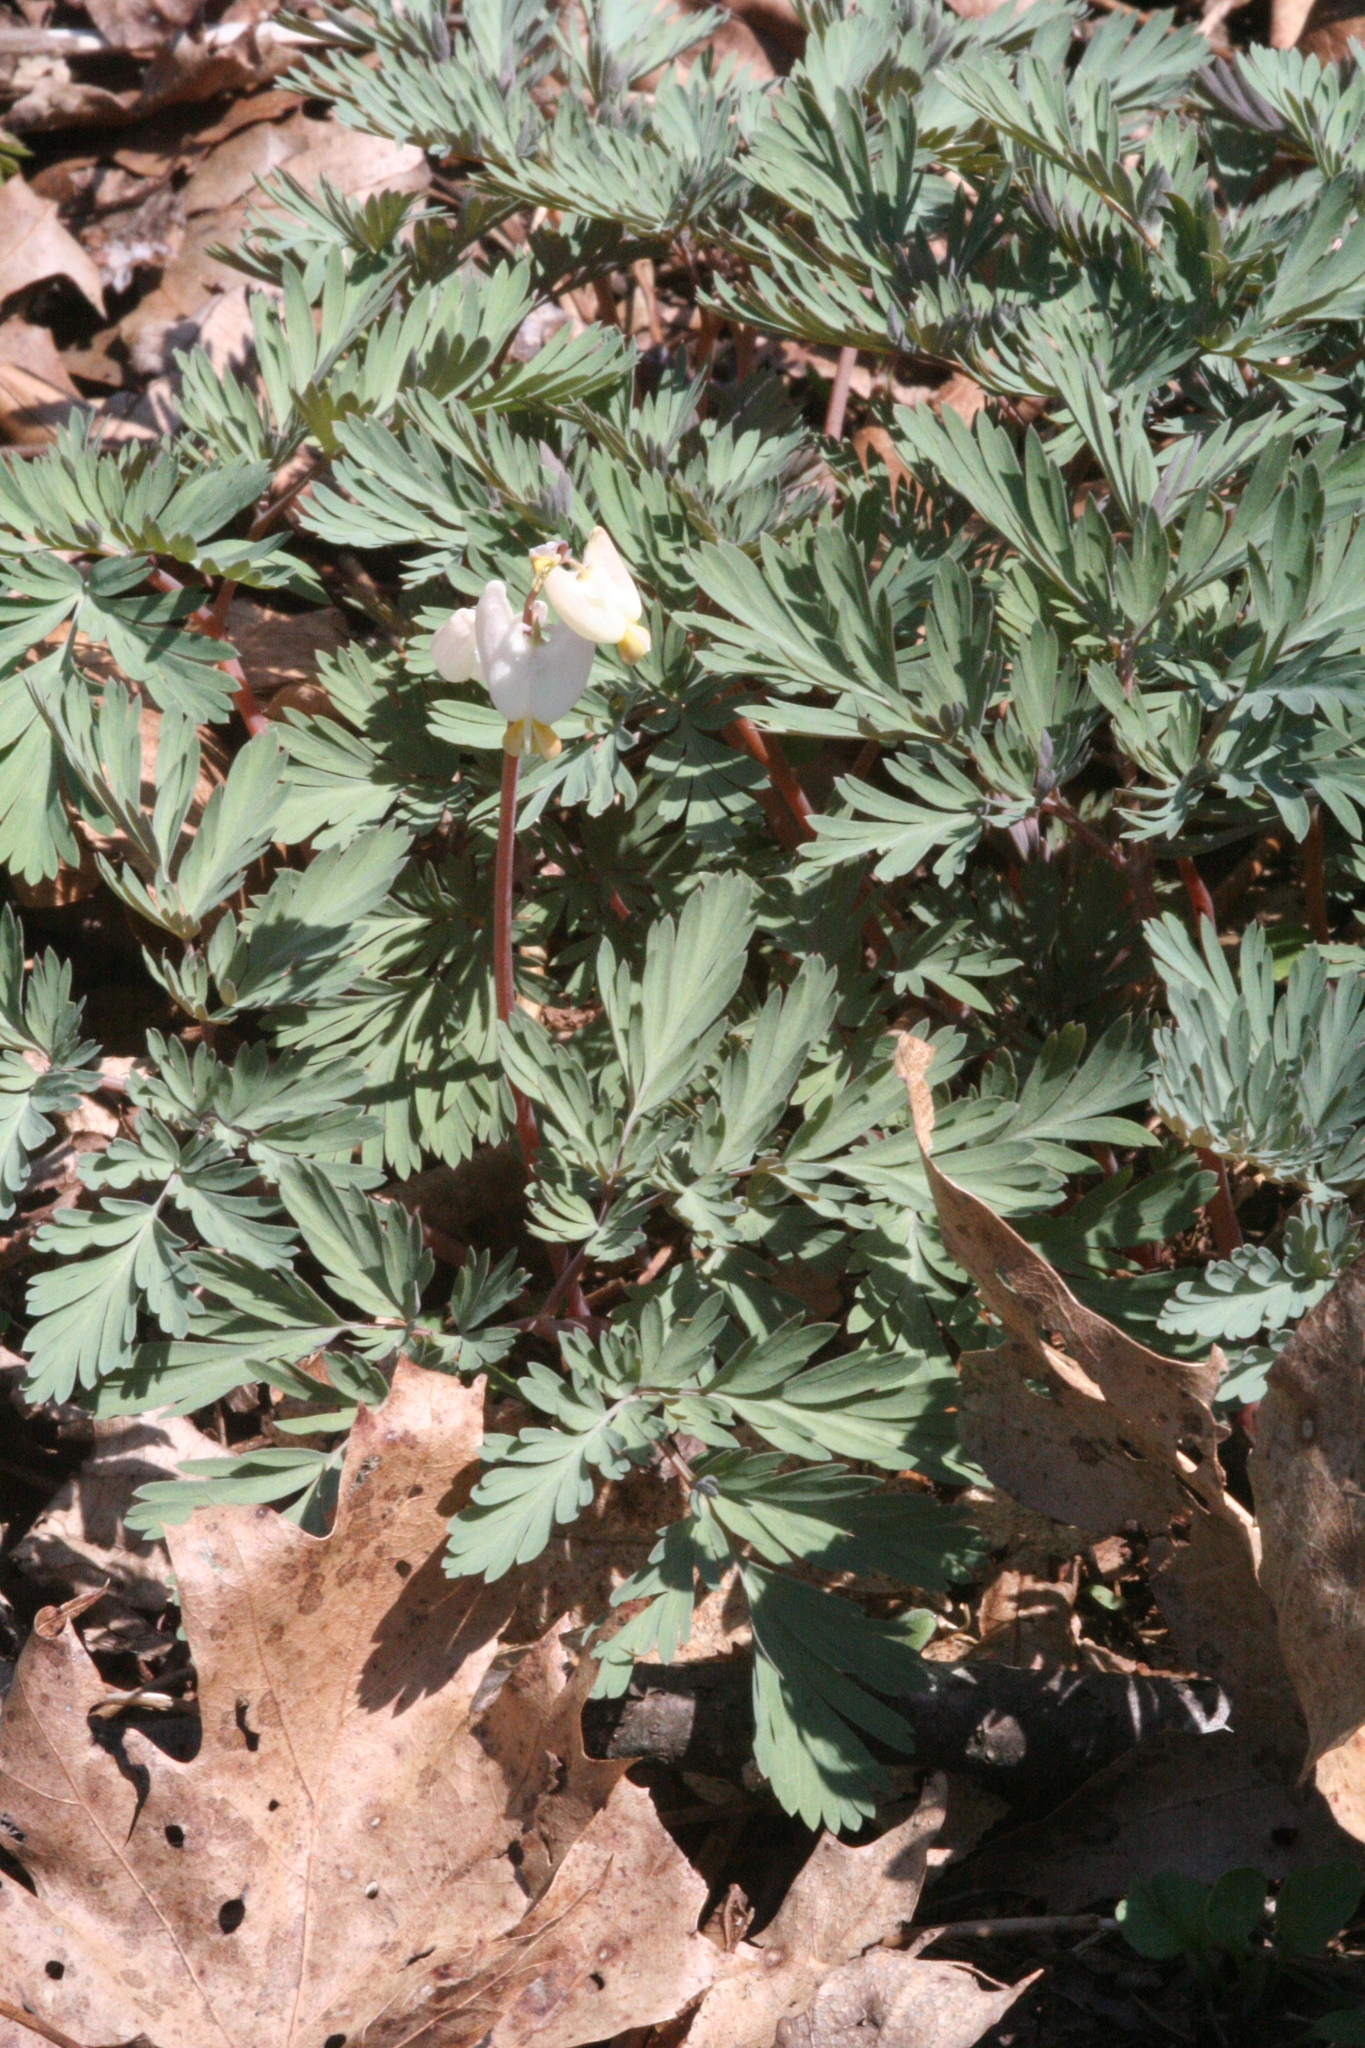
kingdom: Plantae
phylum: Tracheophyta
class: Magnoliopsida
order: Ranunculales
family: Papaveraceae
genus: Dicentra
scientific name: Dicentra cucullaria
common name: Dutchman's breeches
